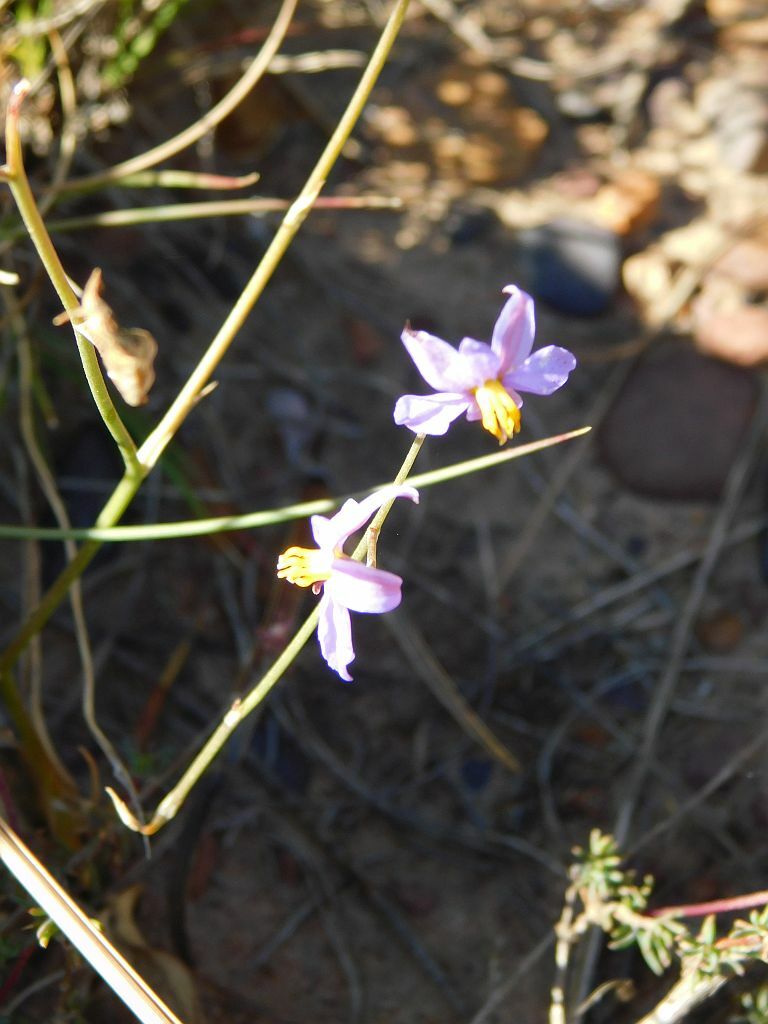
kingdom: Plantae
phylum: Tracheophyta
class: Liliopsida
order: Asparagales
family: Tecophilaeaceae
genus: Cyanella
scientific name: Cyanella hyacinthoides
